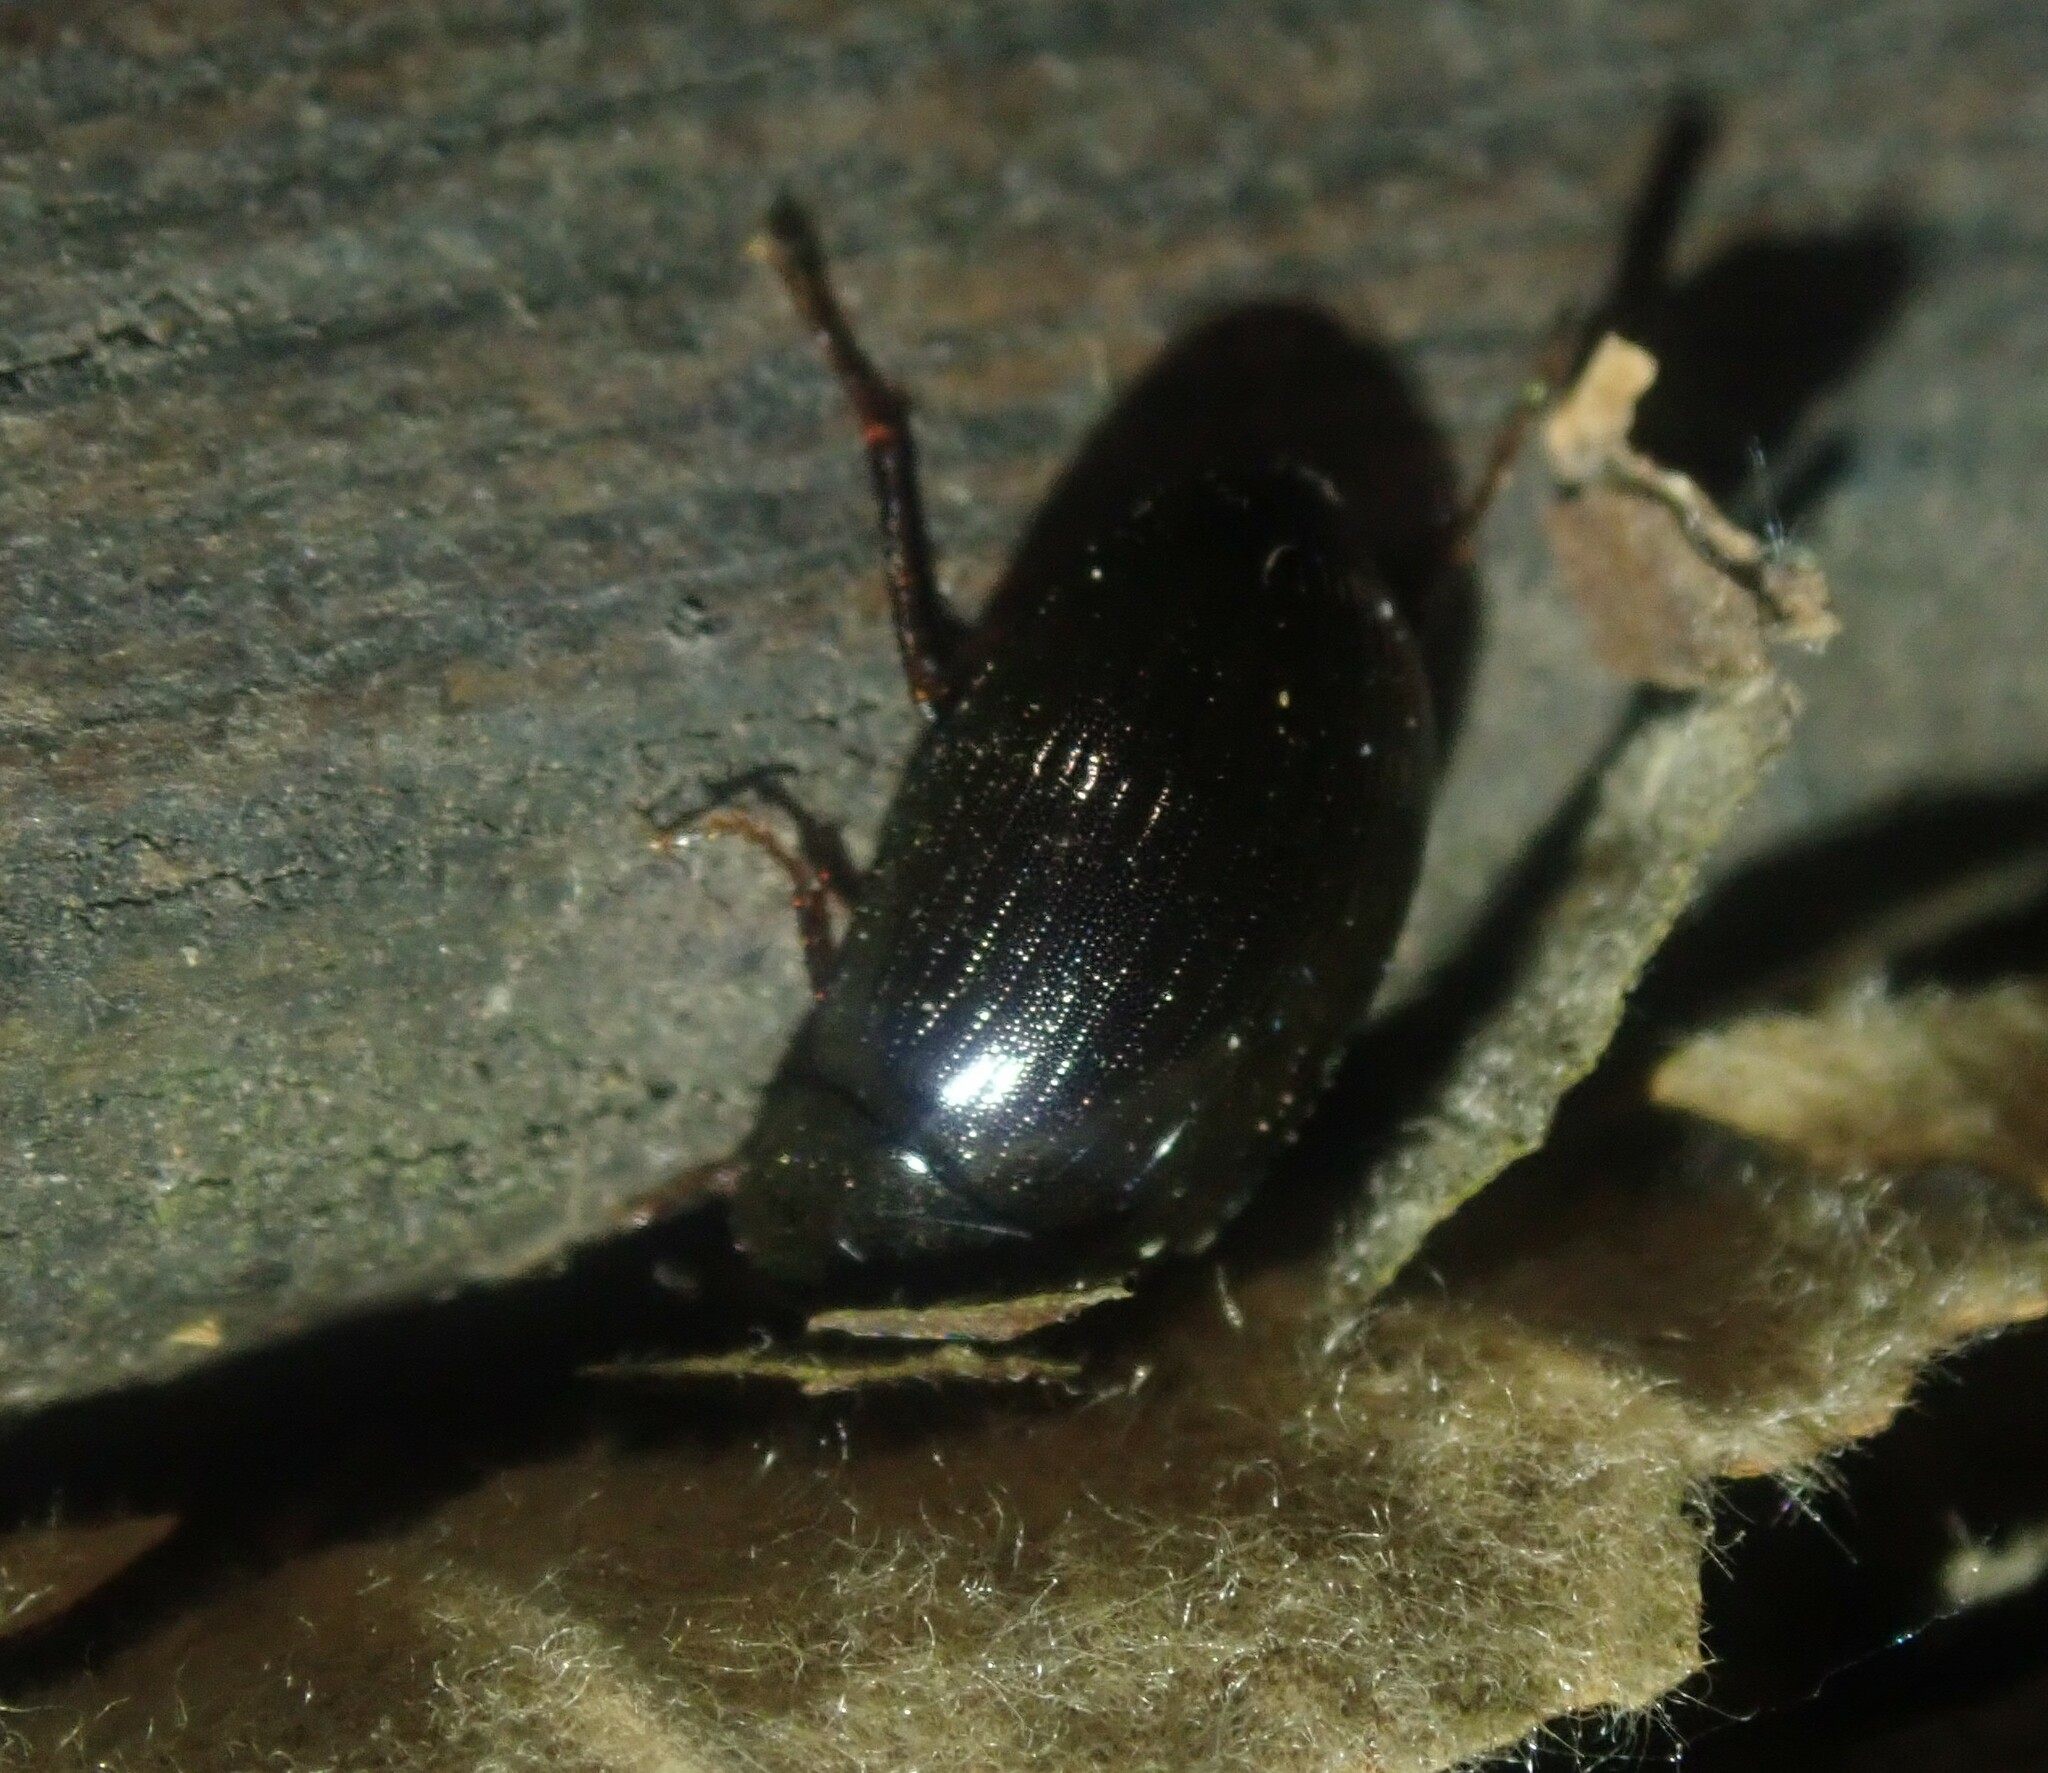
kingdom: Animalia
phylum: Arthropoda
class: Insecta
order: Coleoptera
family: Hydrophilidae
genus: Hydrobius
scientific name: Hydrobius
